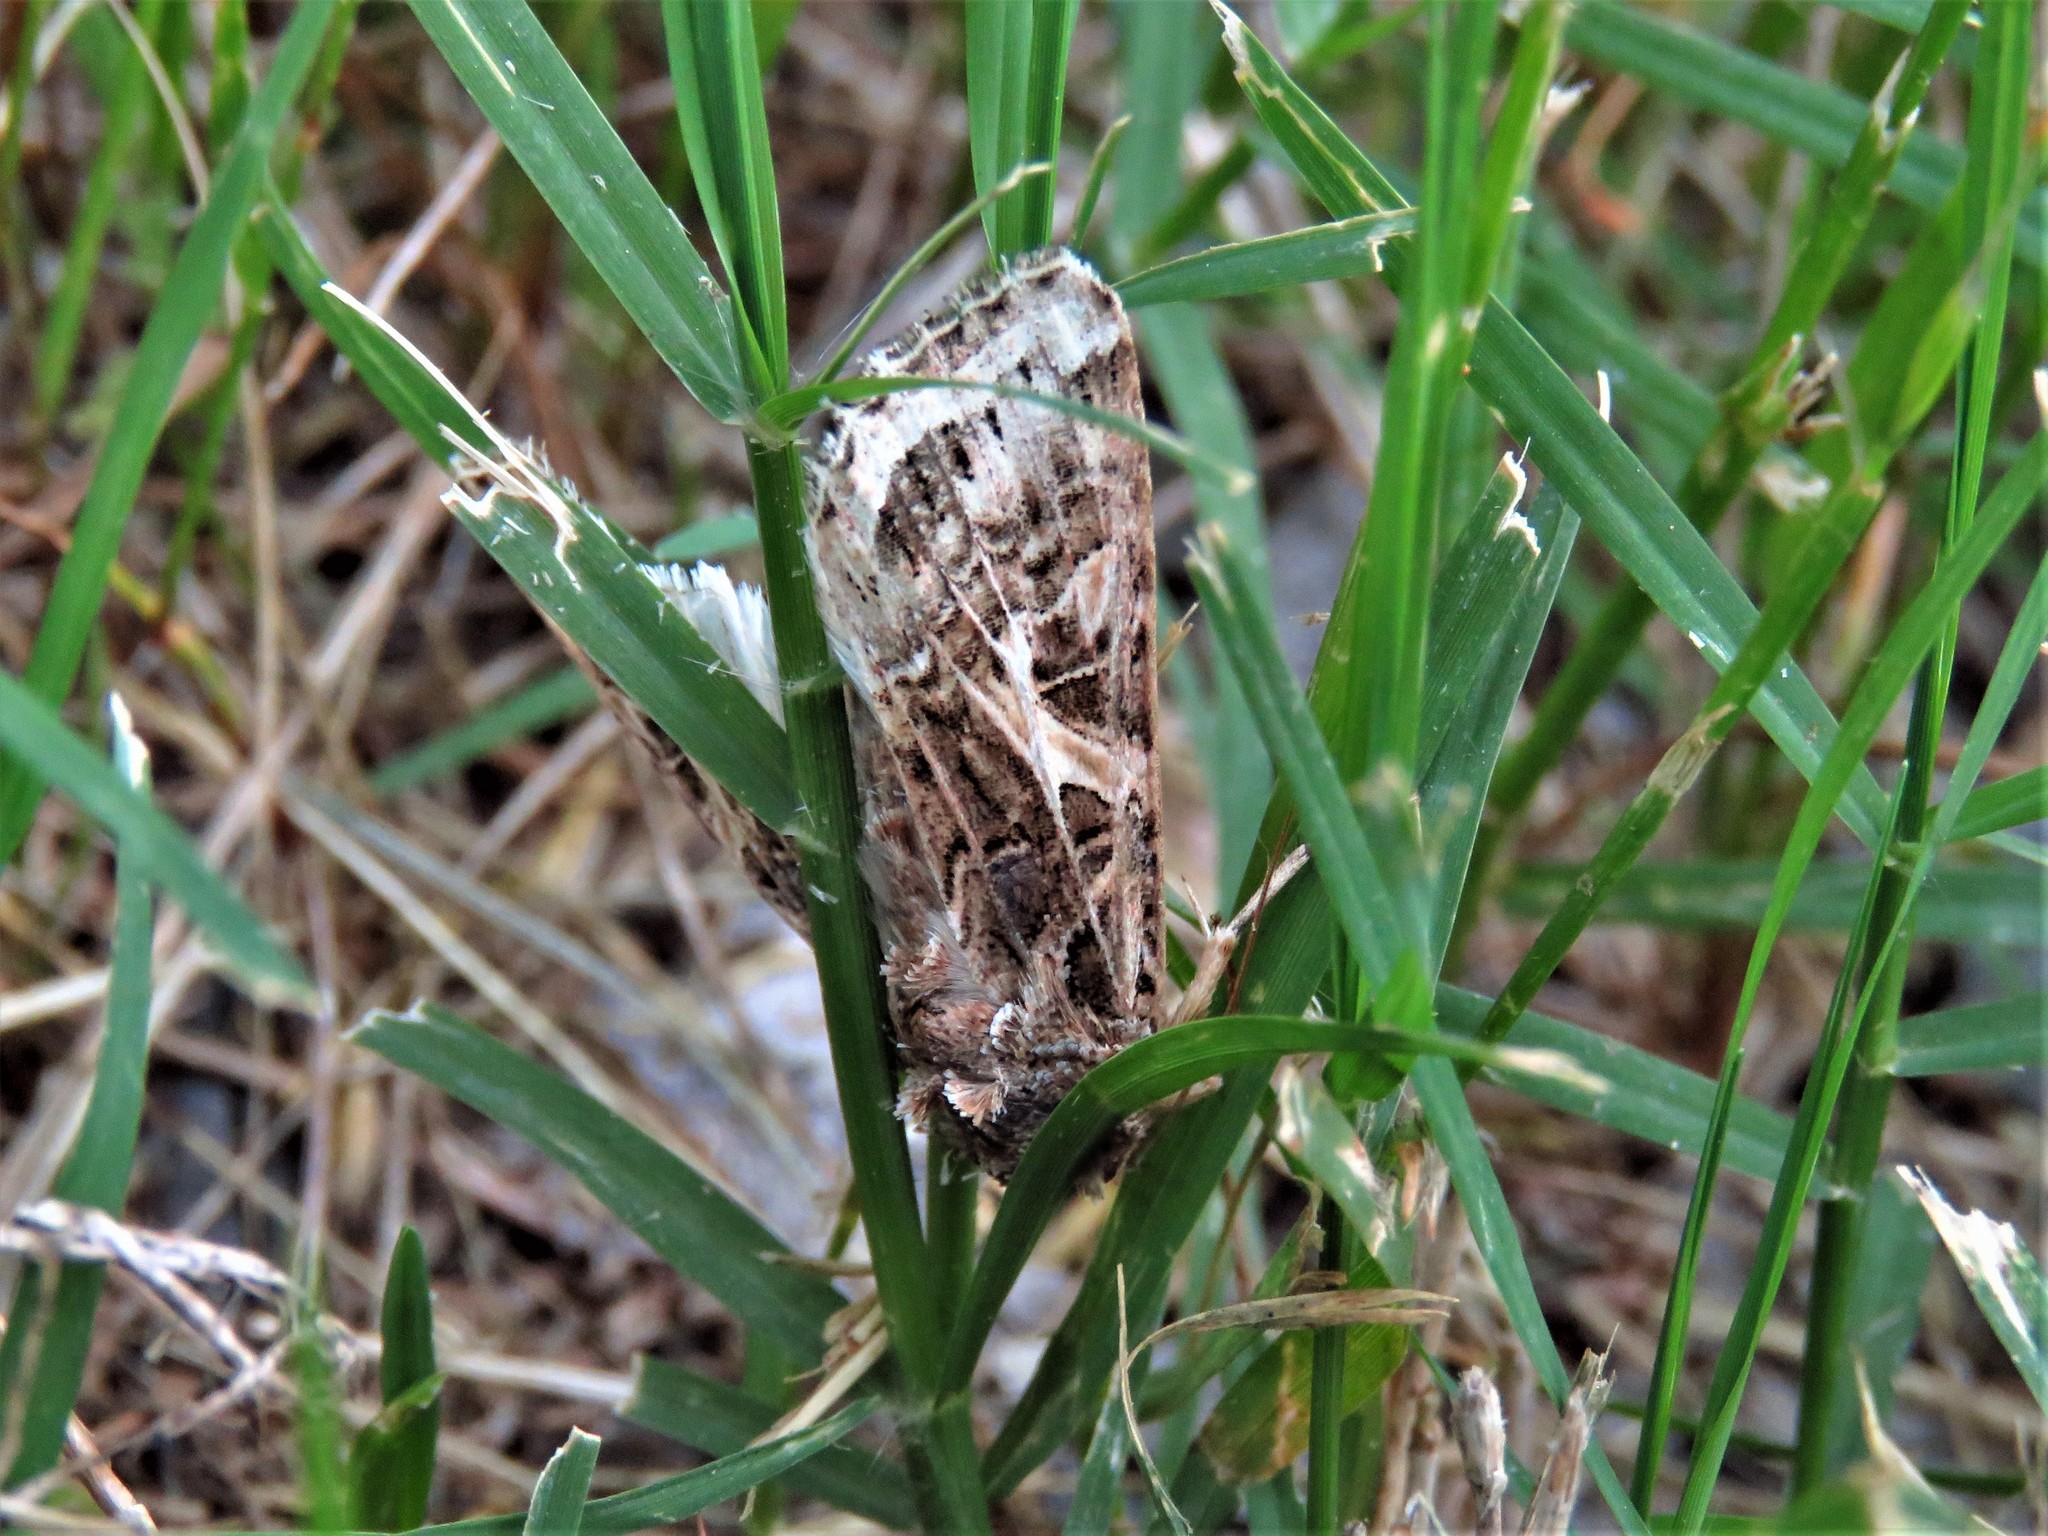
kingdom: Animalia
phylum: Arthropoda
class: Insecta
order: Lepidoptera
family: Noctuidae
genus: Spodoptera
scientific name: Spodoptera ornithogalli
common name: Yellow-striped armyworm
